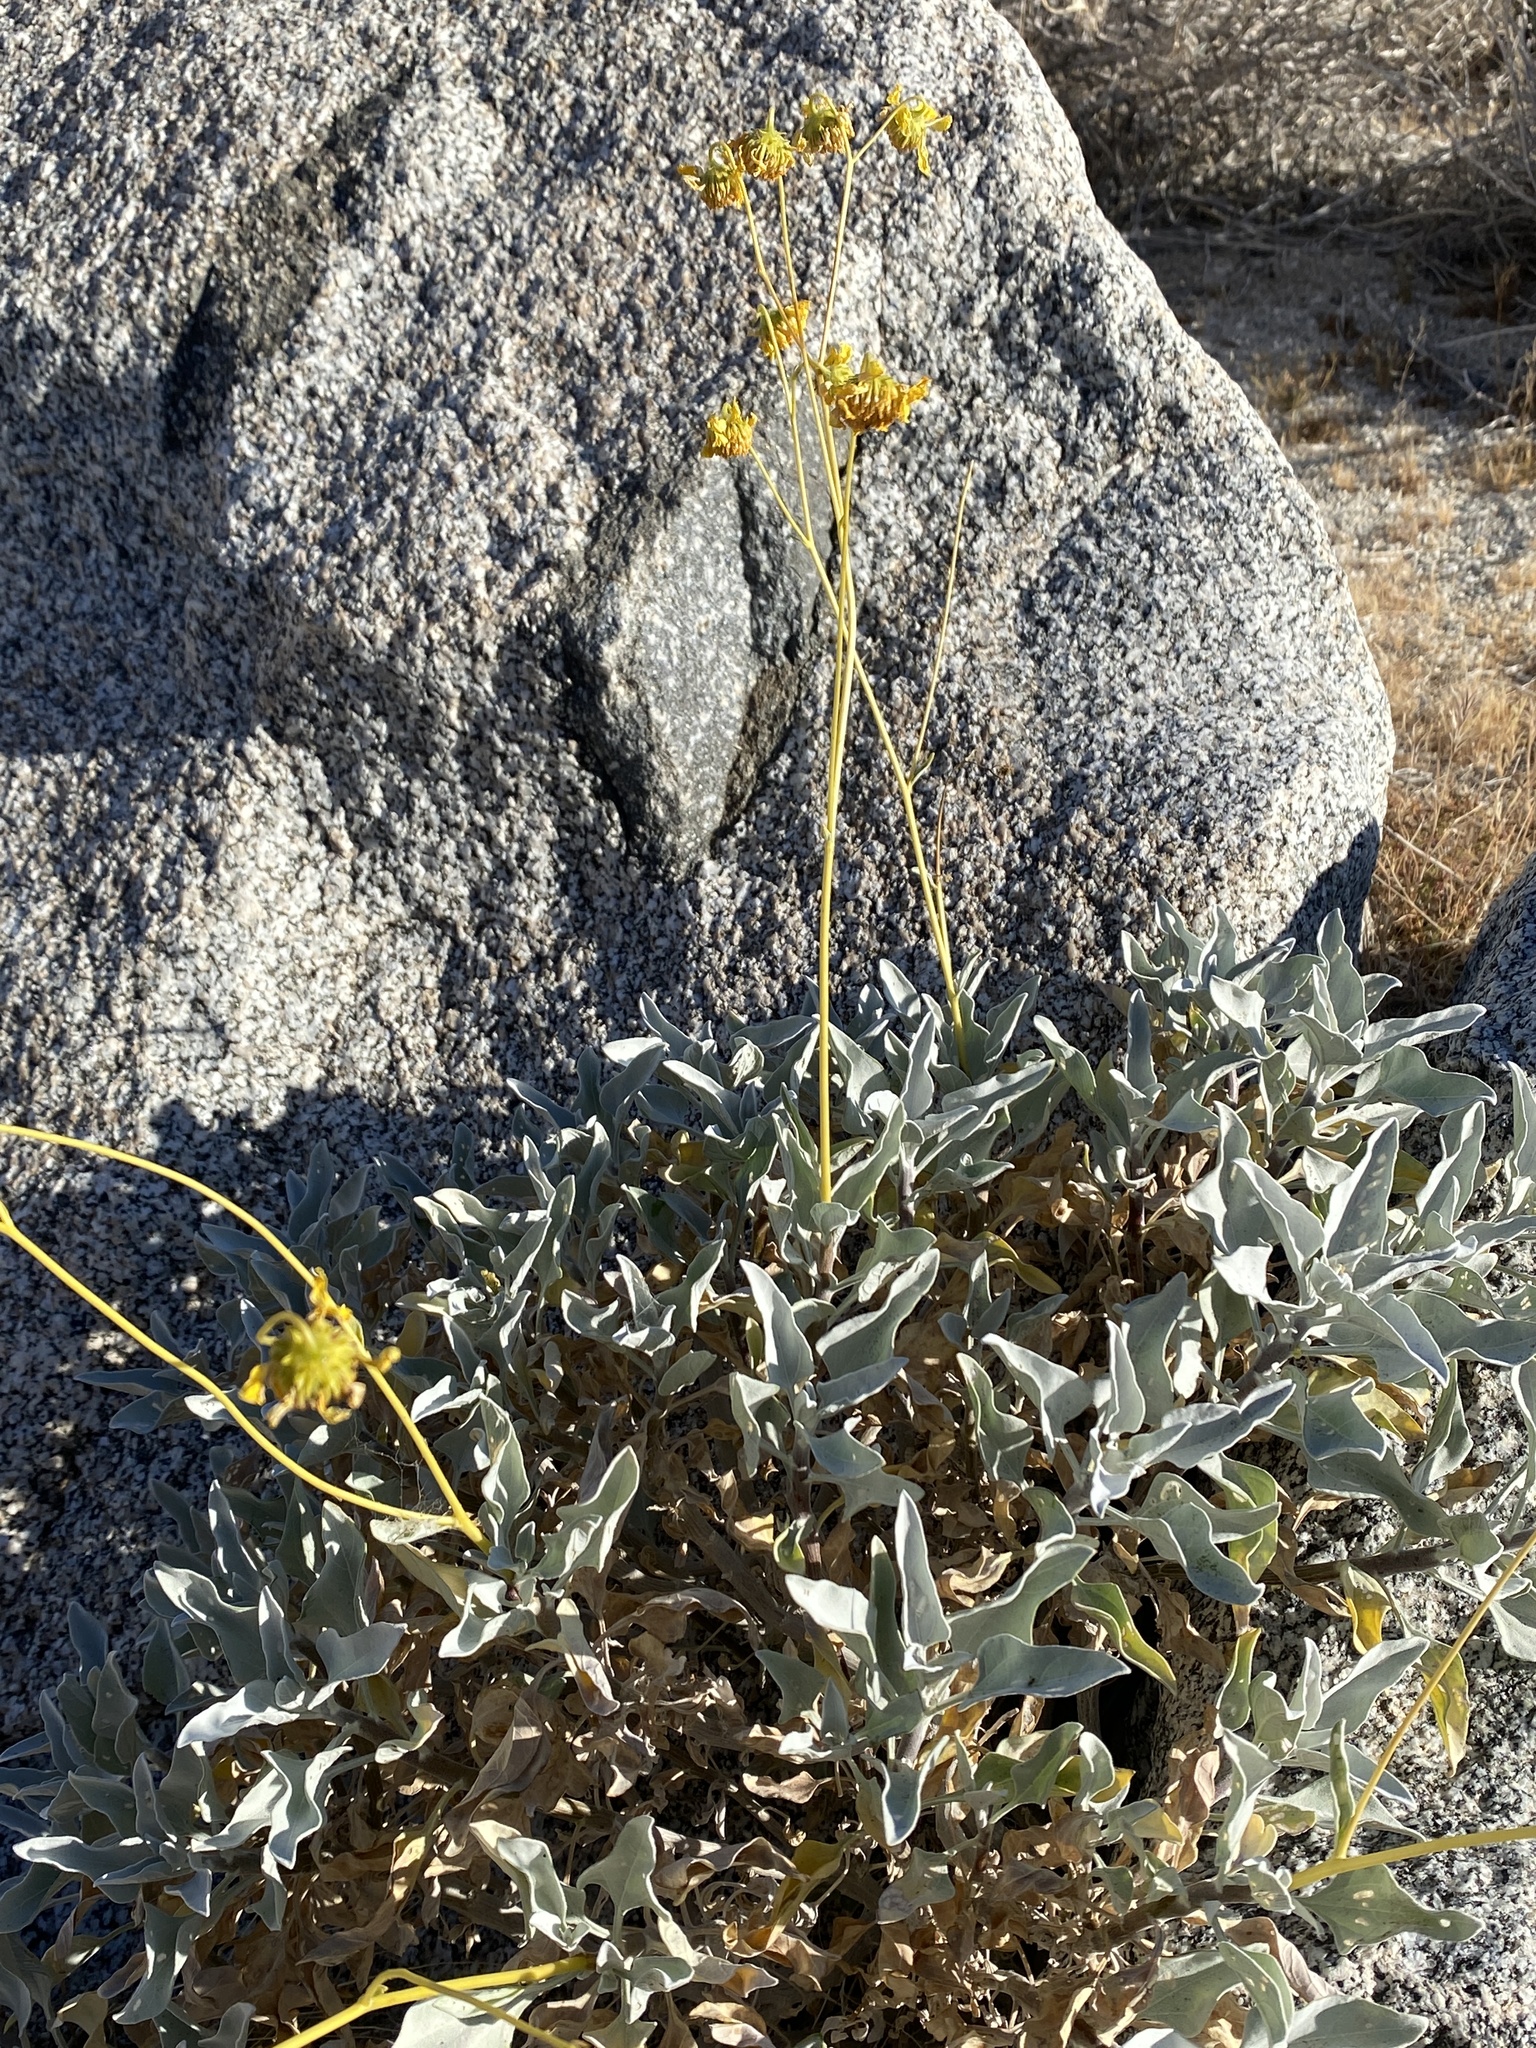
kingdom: Plantae
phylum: Tracheophyta
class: Magnoliopsida
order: Asterales
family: Asteraceae
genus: Encelia
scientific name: Encelia farinosa
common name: Brittlebush
